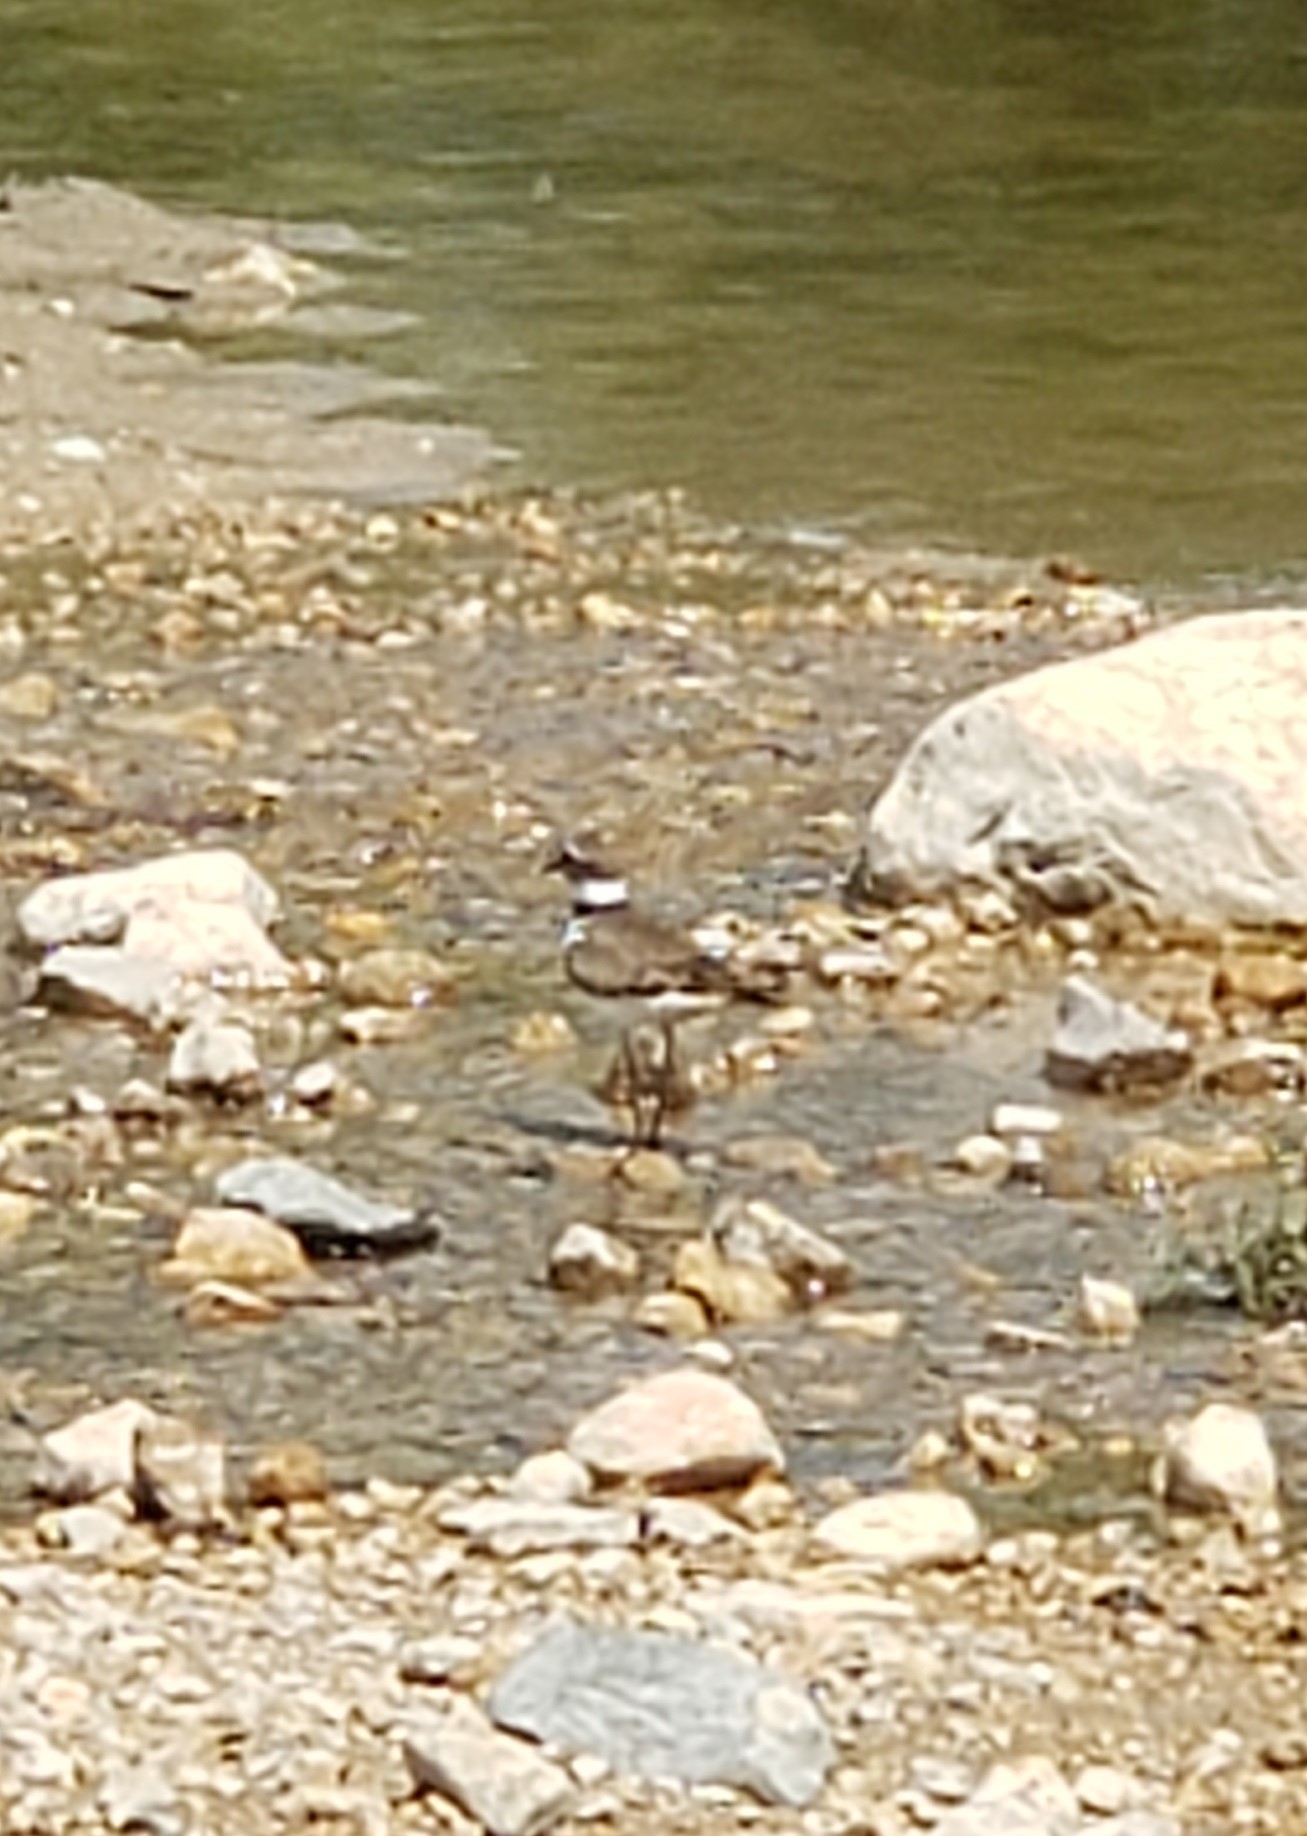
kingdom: Animalia
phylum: Chordata
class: Aves
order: Charadriiformes
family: Charadriidae
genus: Charadrius
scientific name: Charadrius vociferus
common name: Killdeer
